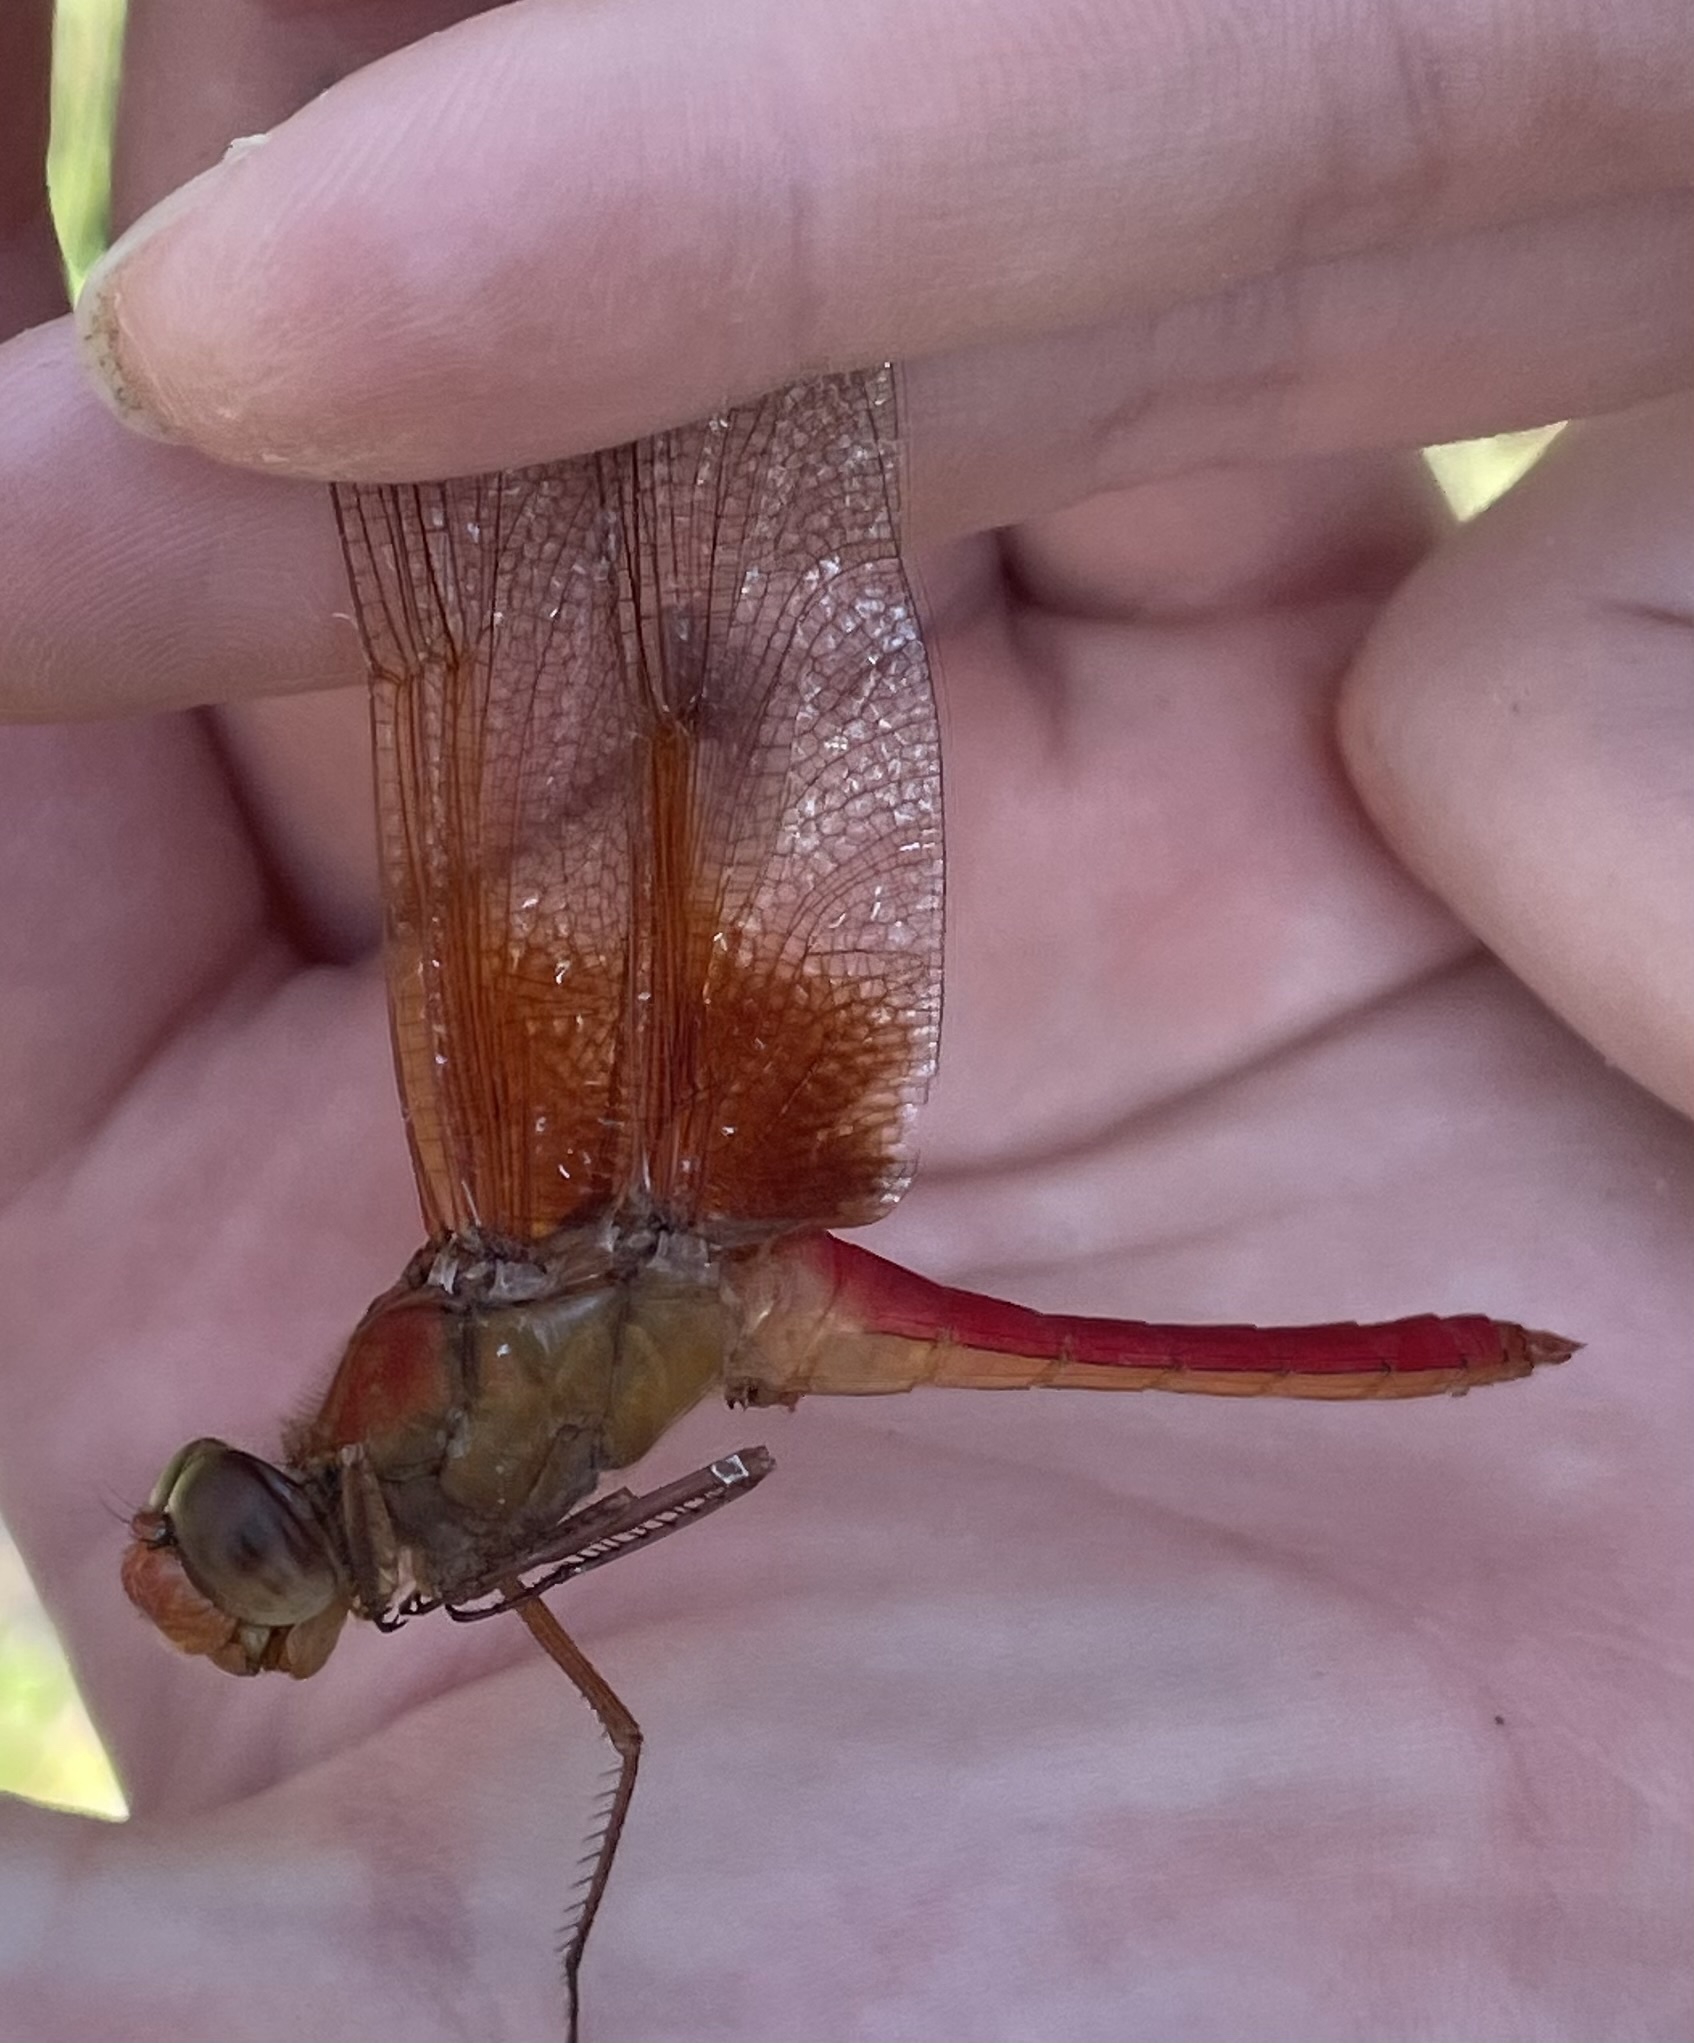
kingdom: Animalia
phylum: Arthropoda
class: Insecta
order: Odonata
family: Libellulidae
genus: Libellula
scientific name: Libellula croceipennis
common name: Neon skimmer
